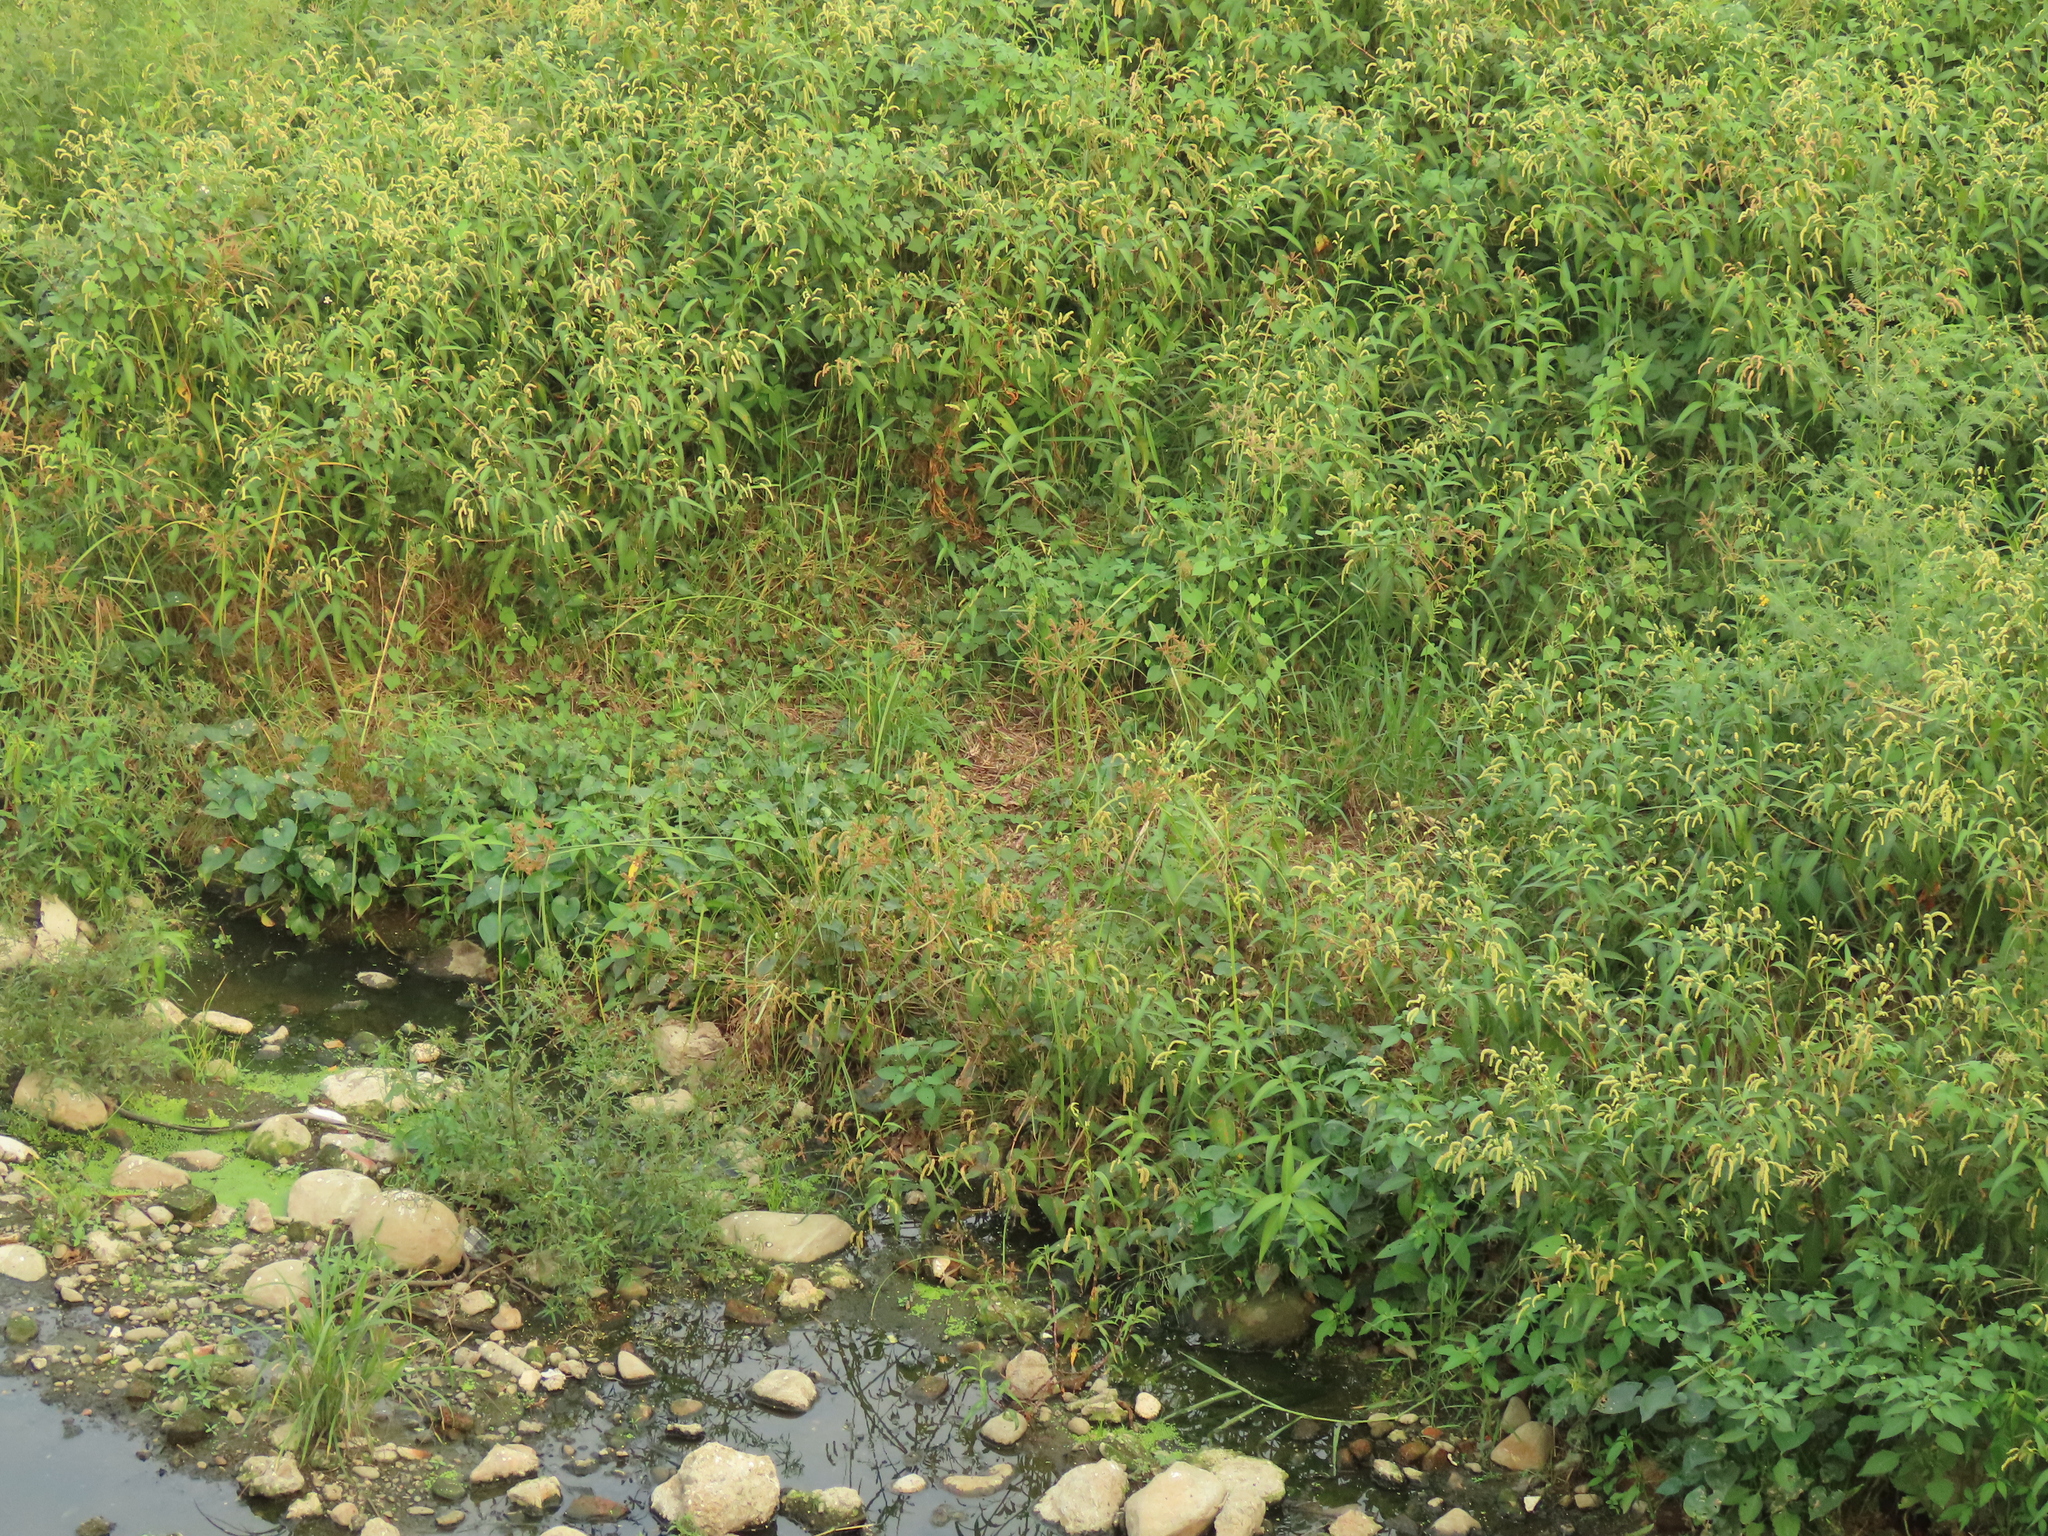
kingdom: Plantae
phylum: Tracheophyta
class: Liliopsida
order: Poales
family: Cyperaceae
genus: Cyperus
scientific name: Cyperus imbricatus
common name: Shingle flatsedge
